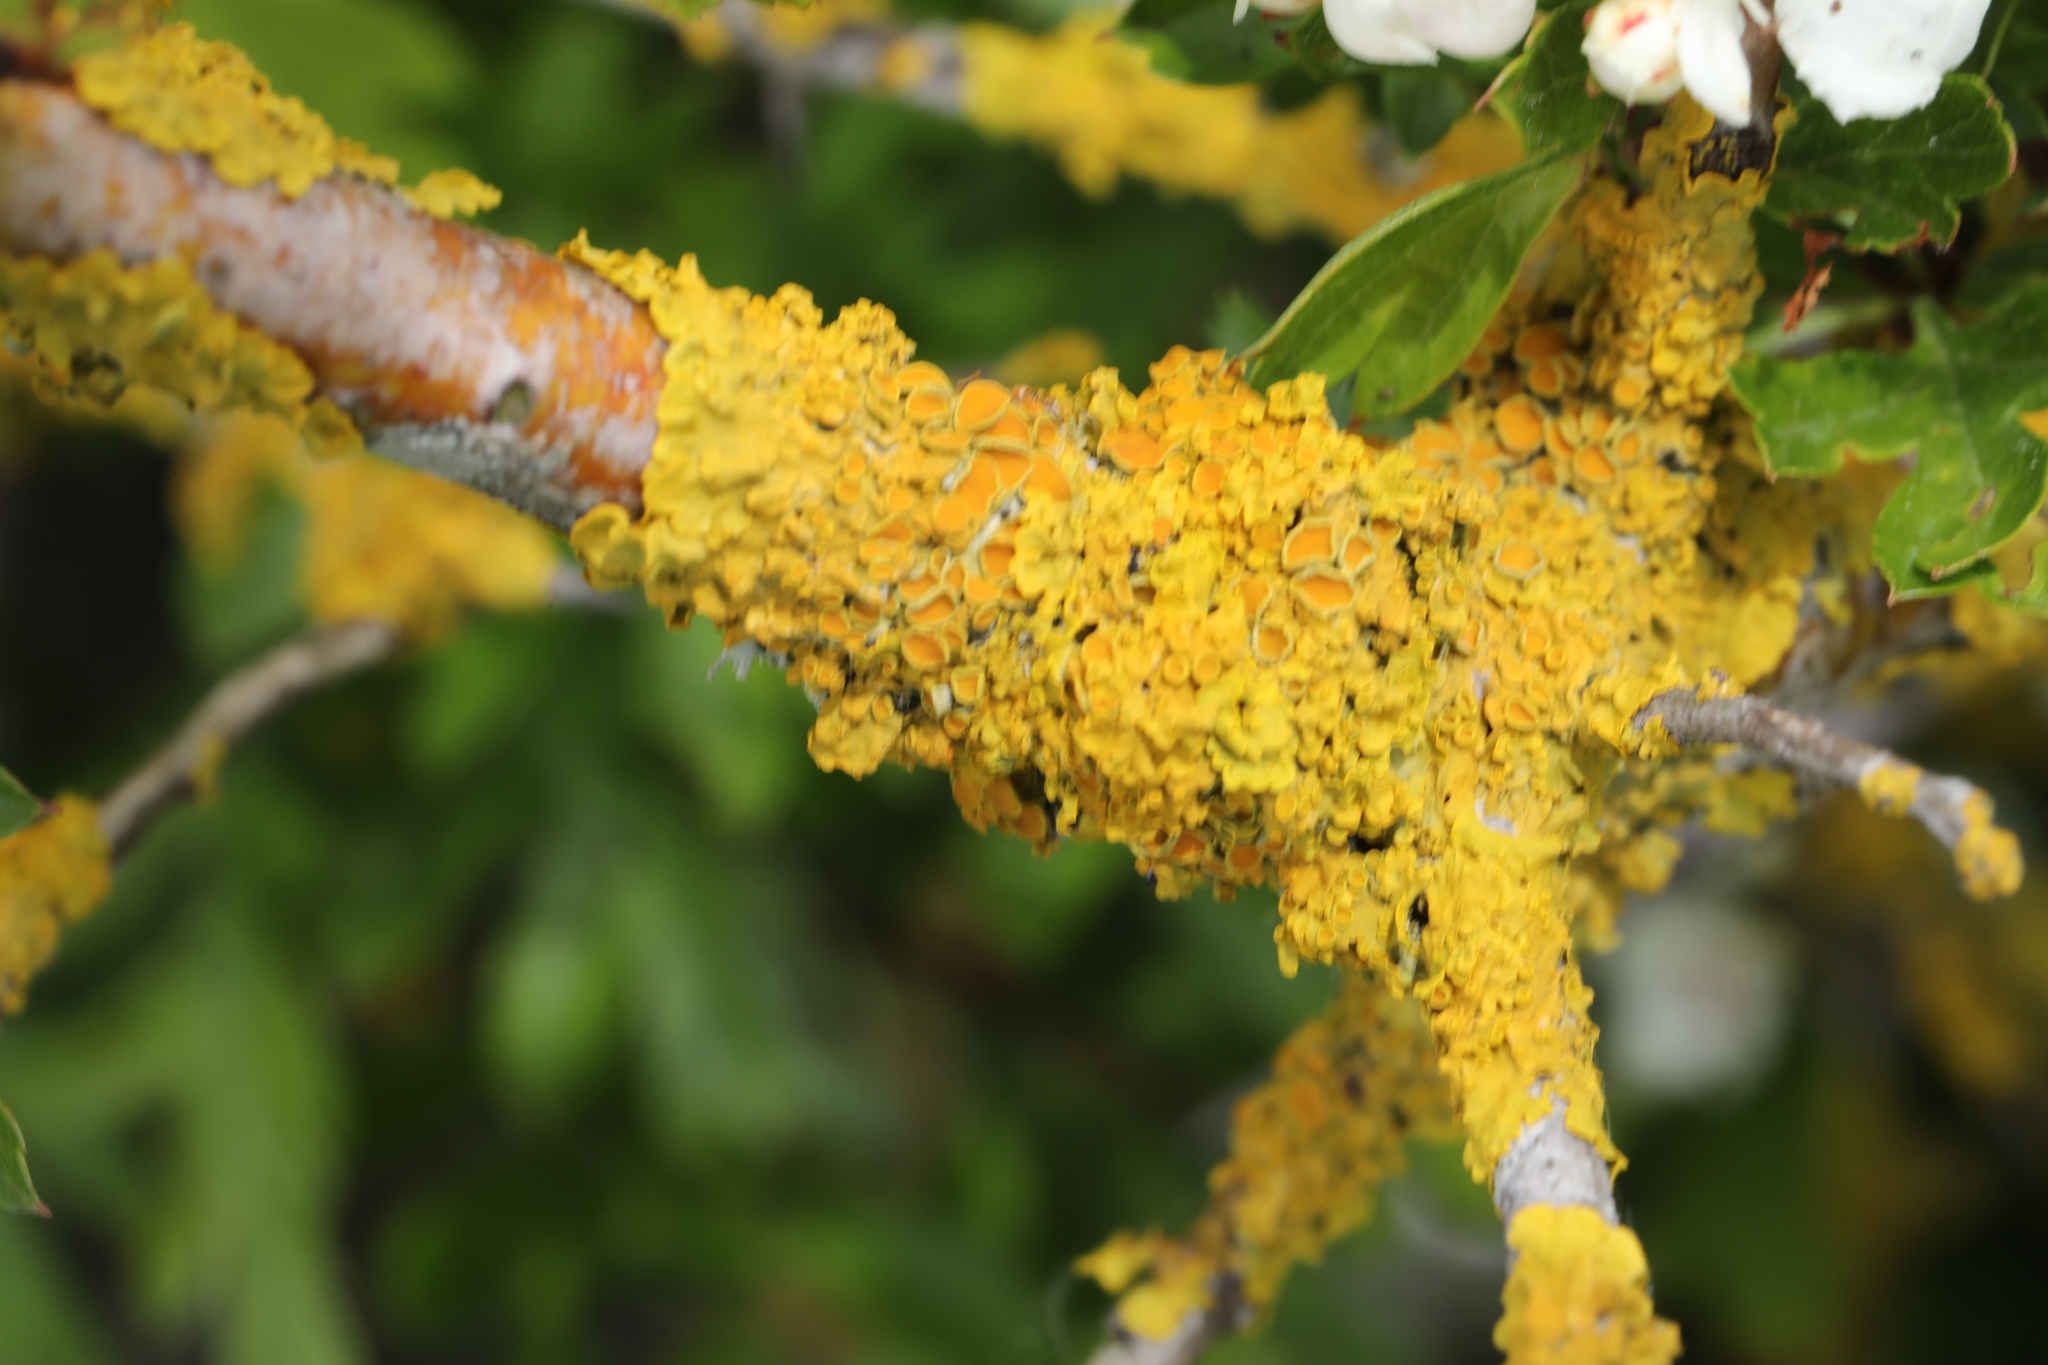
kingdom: Fungi
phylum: Ascomycota
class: Lecanoromycetes
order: Teloschistales
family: Teloschistaceae
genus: Xanthoria
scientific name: Xanthoria parietina
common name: Common orange lichen
